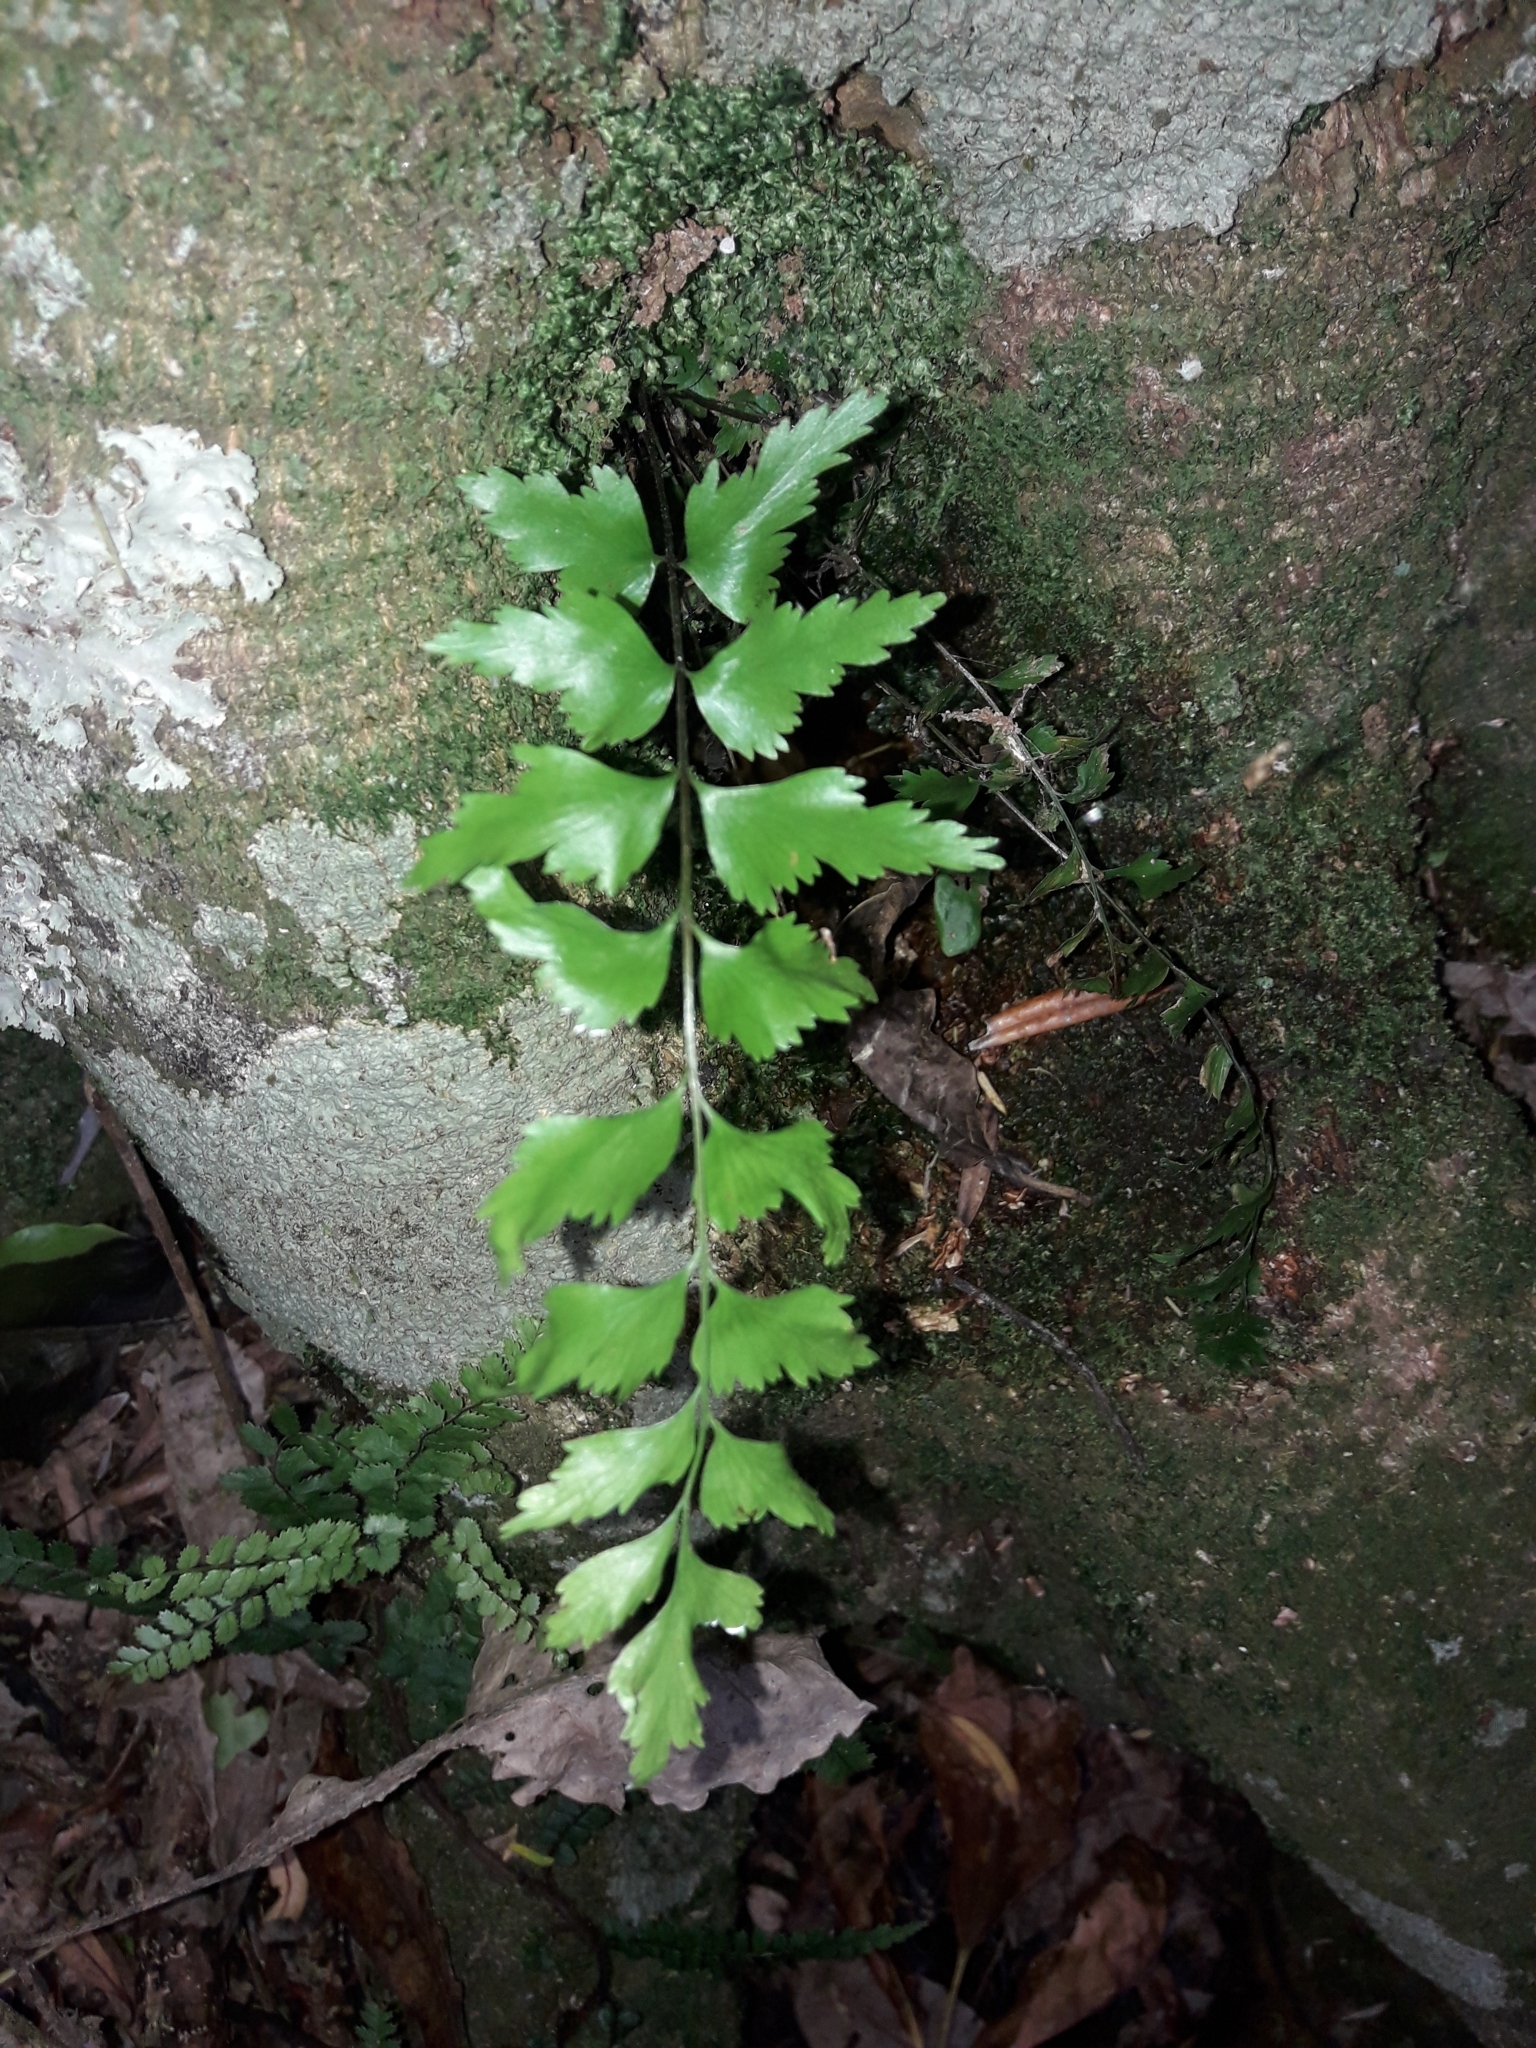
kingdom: Plantae
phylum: Tracheophyta
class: Polypodiopsida
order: Polypodiales
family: Aspleniaceae
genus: Asplenium
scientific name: Asplenium polyodon
